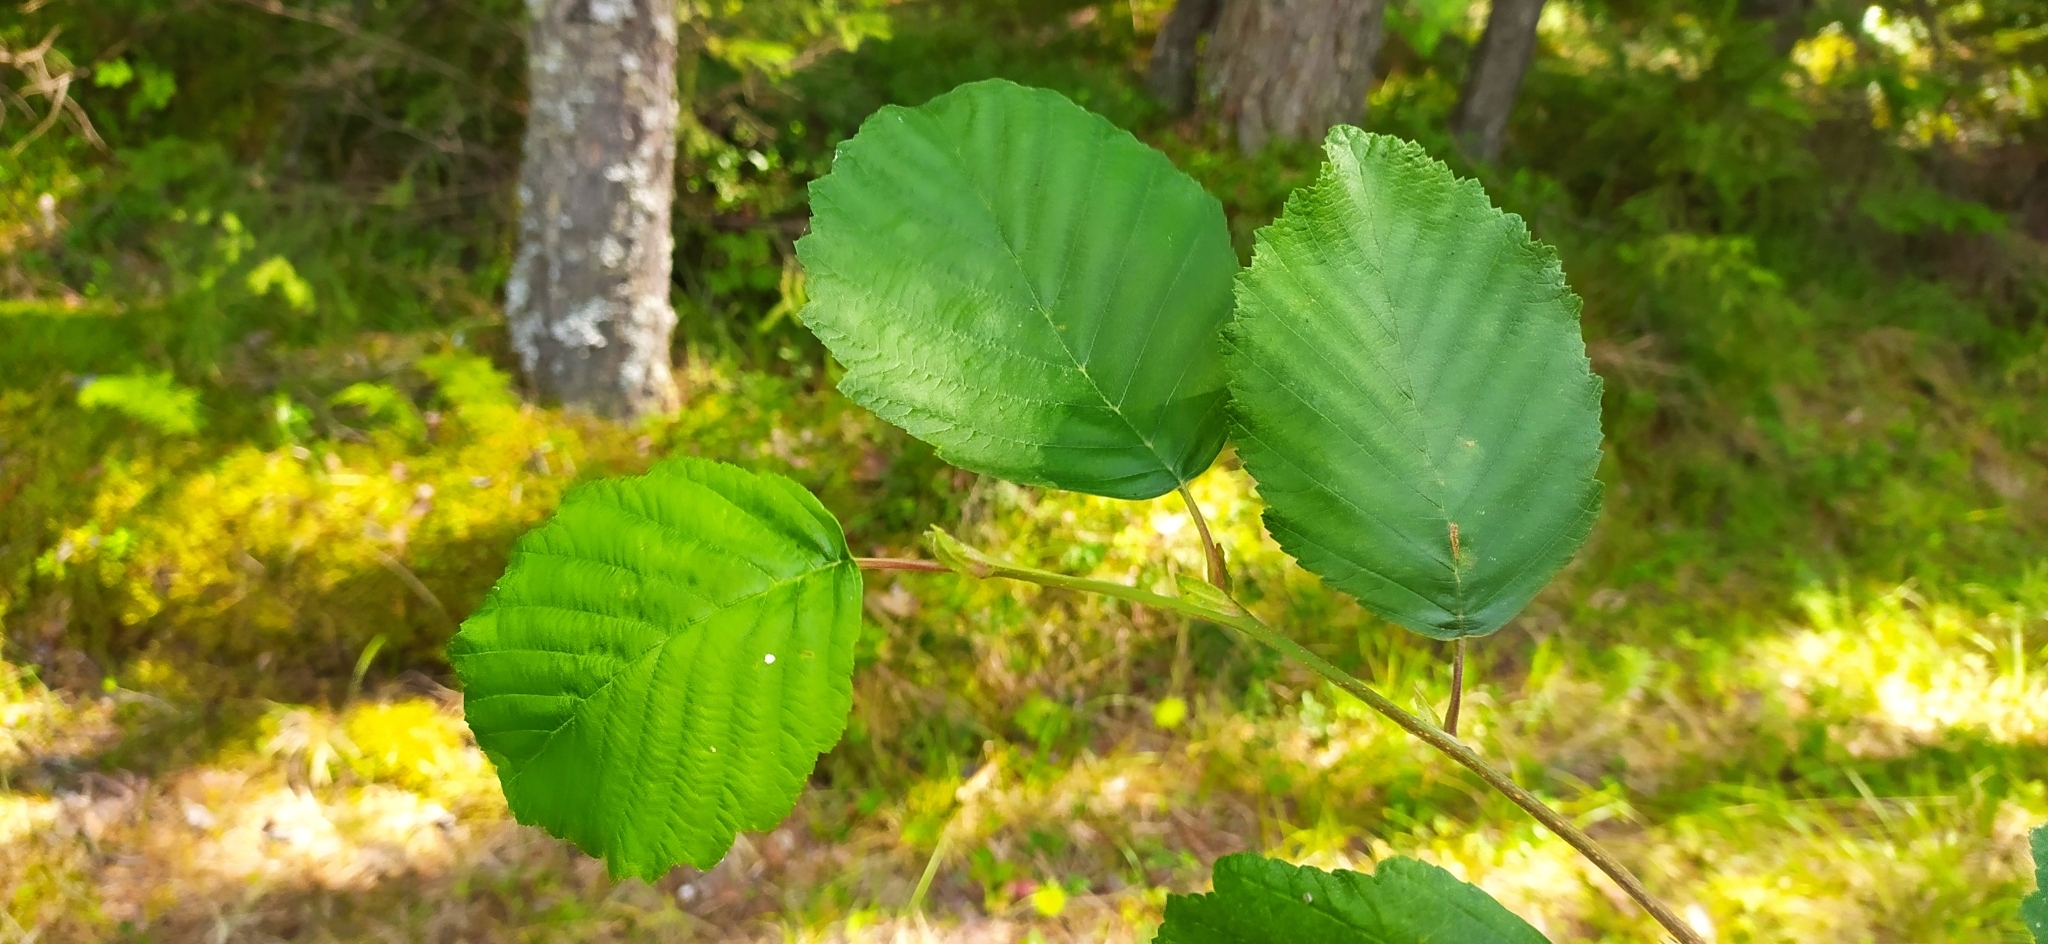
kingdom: Plantae
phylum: Tracheophyta
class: Magnoliopsida
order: Fagales
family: Betulaceae
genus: Alnus
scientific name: Alnus incana
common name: Grey alder
